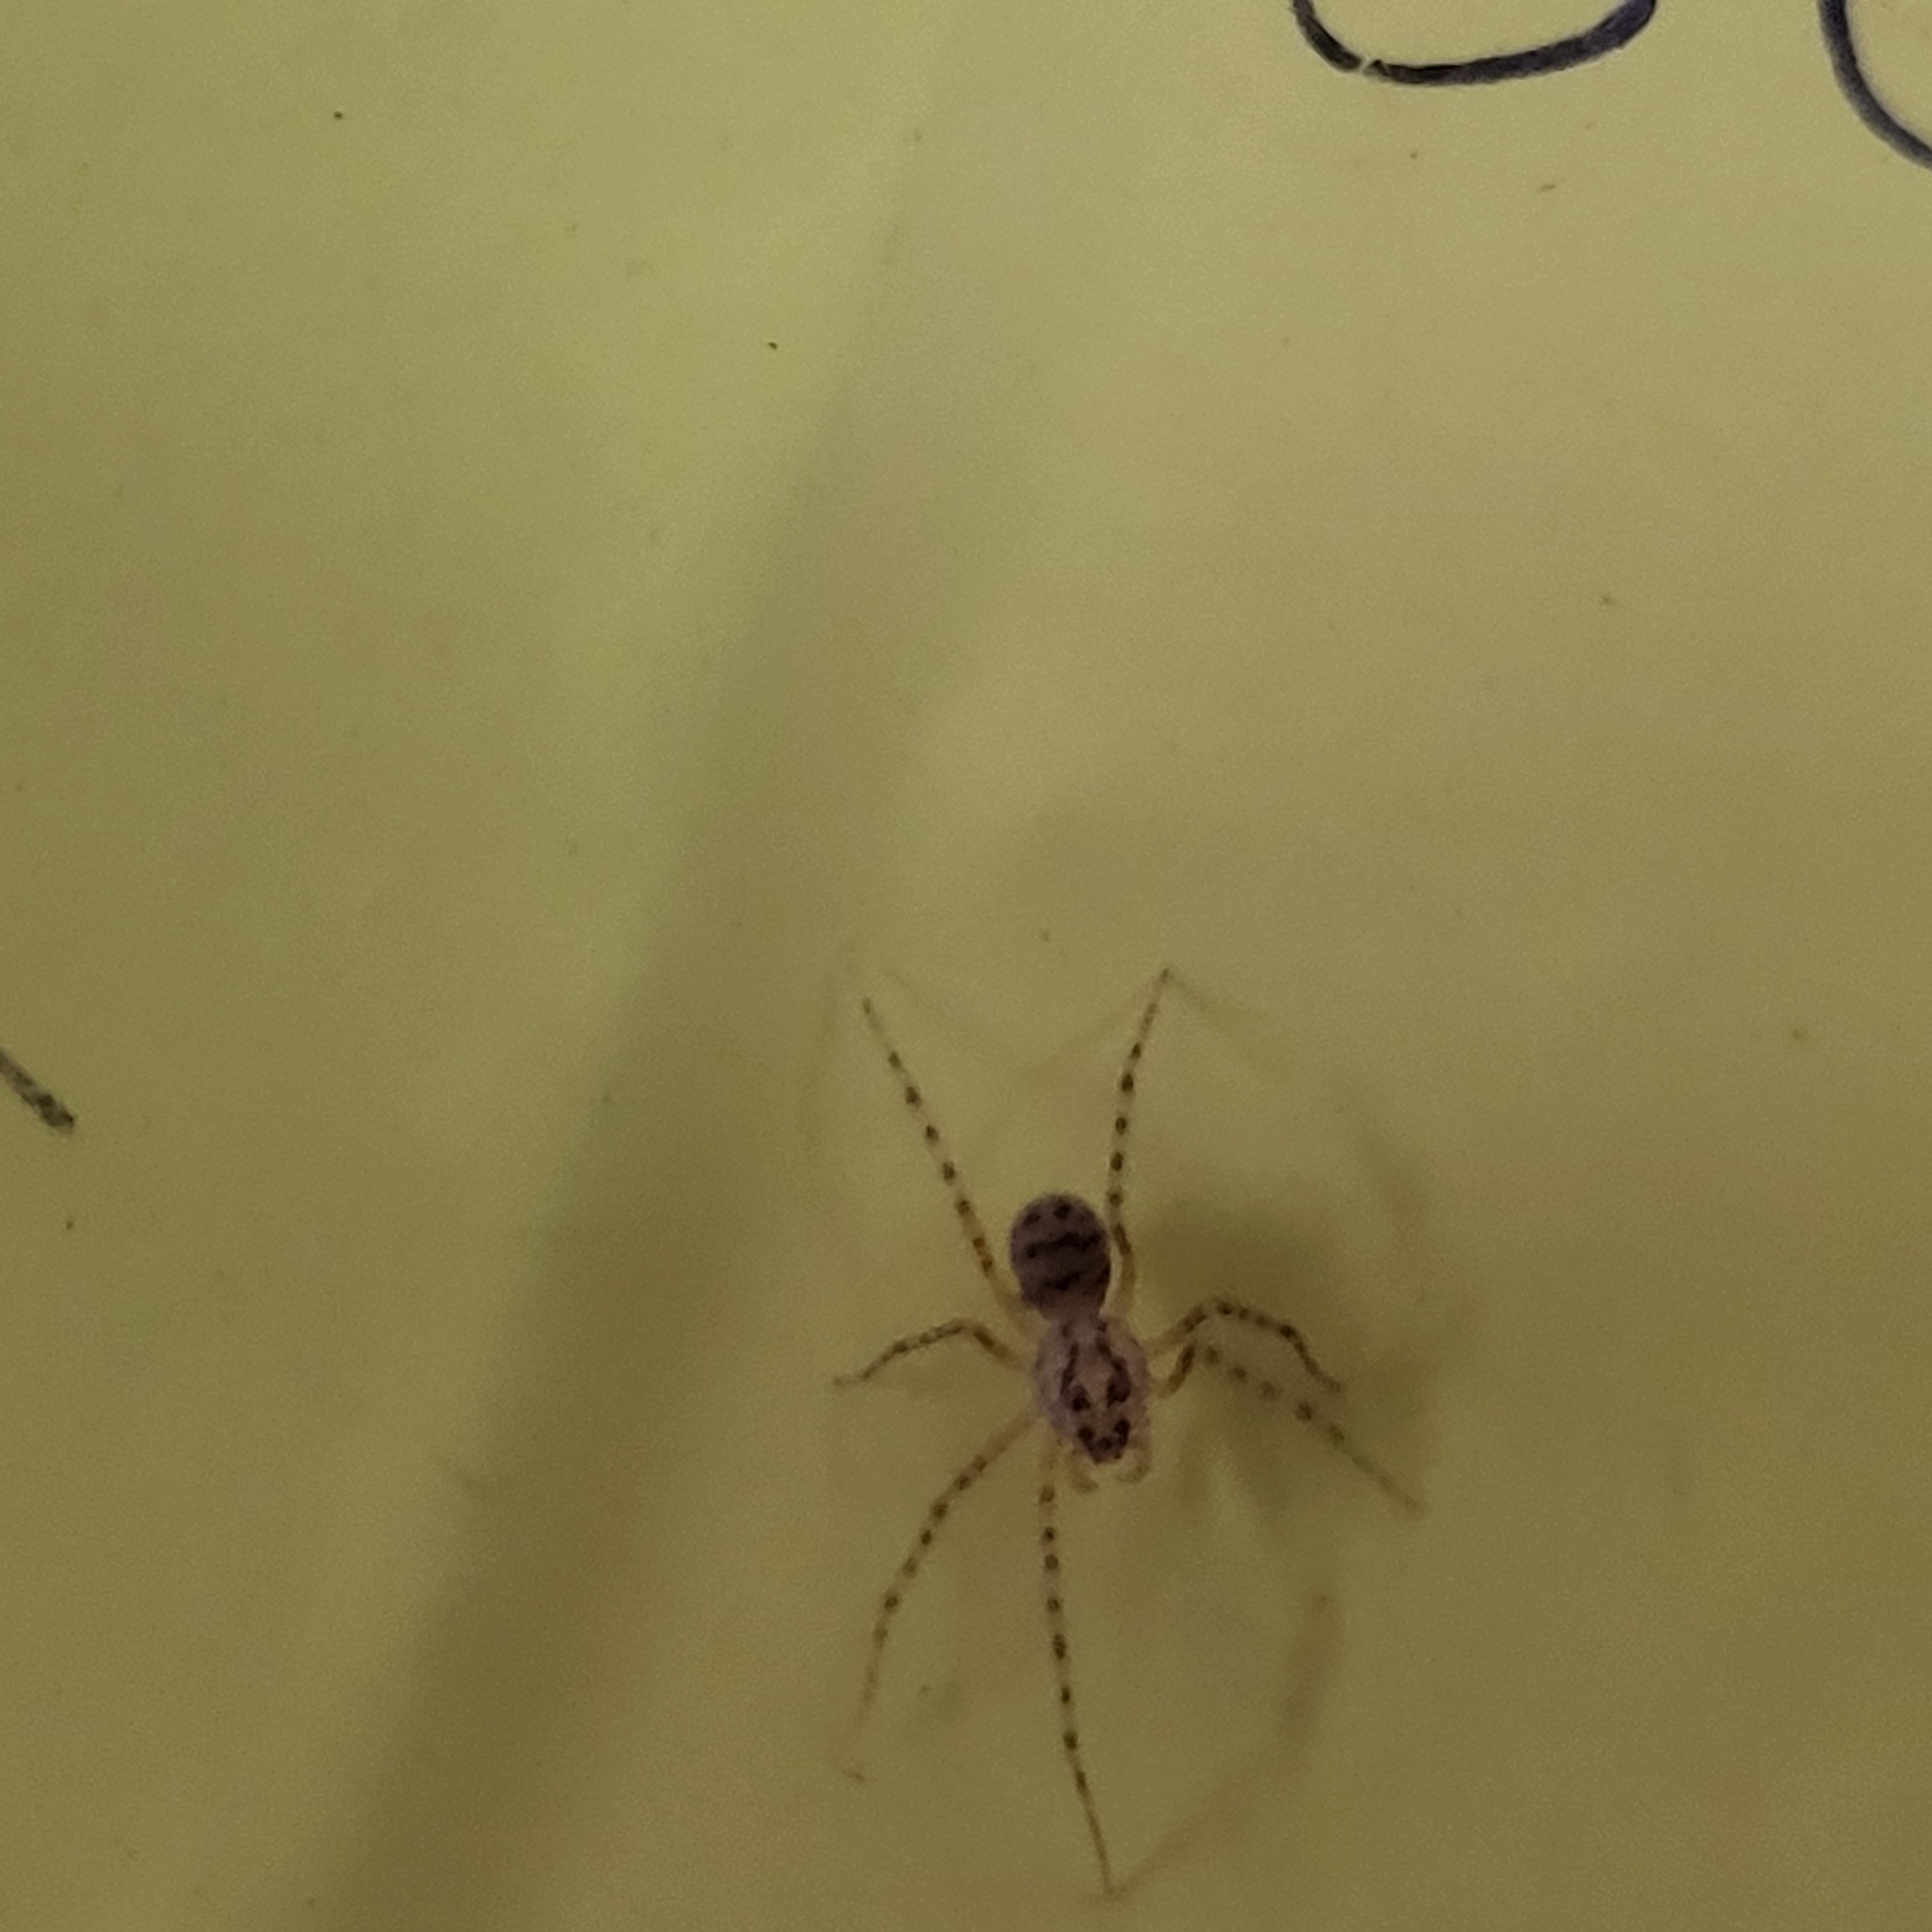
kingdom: Animalia
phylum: Arthropoda
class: Arachnida
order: Araneae
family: Scytodidae
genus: Scytodes
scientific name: Scytodes thoracica
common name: Spitting spider
